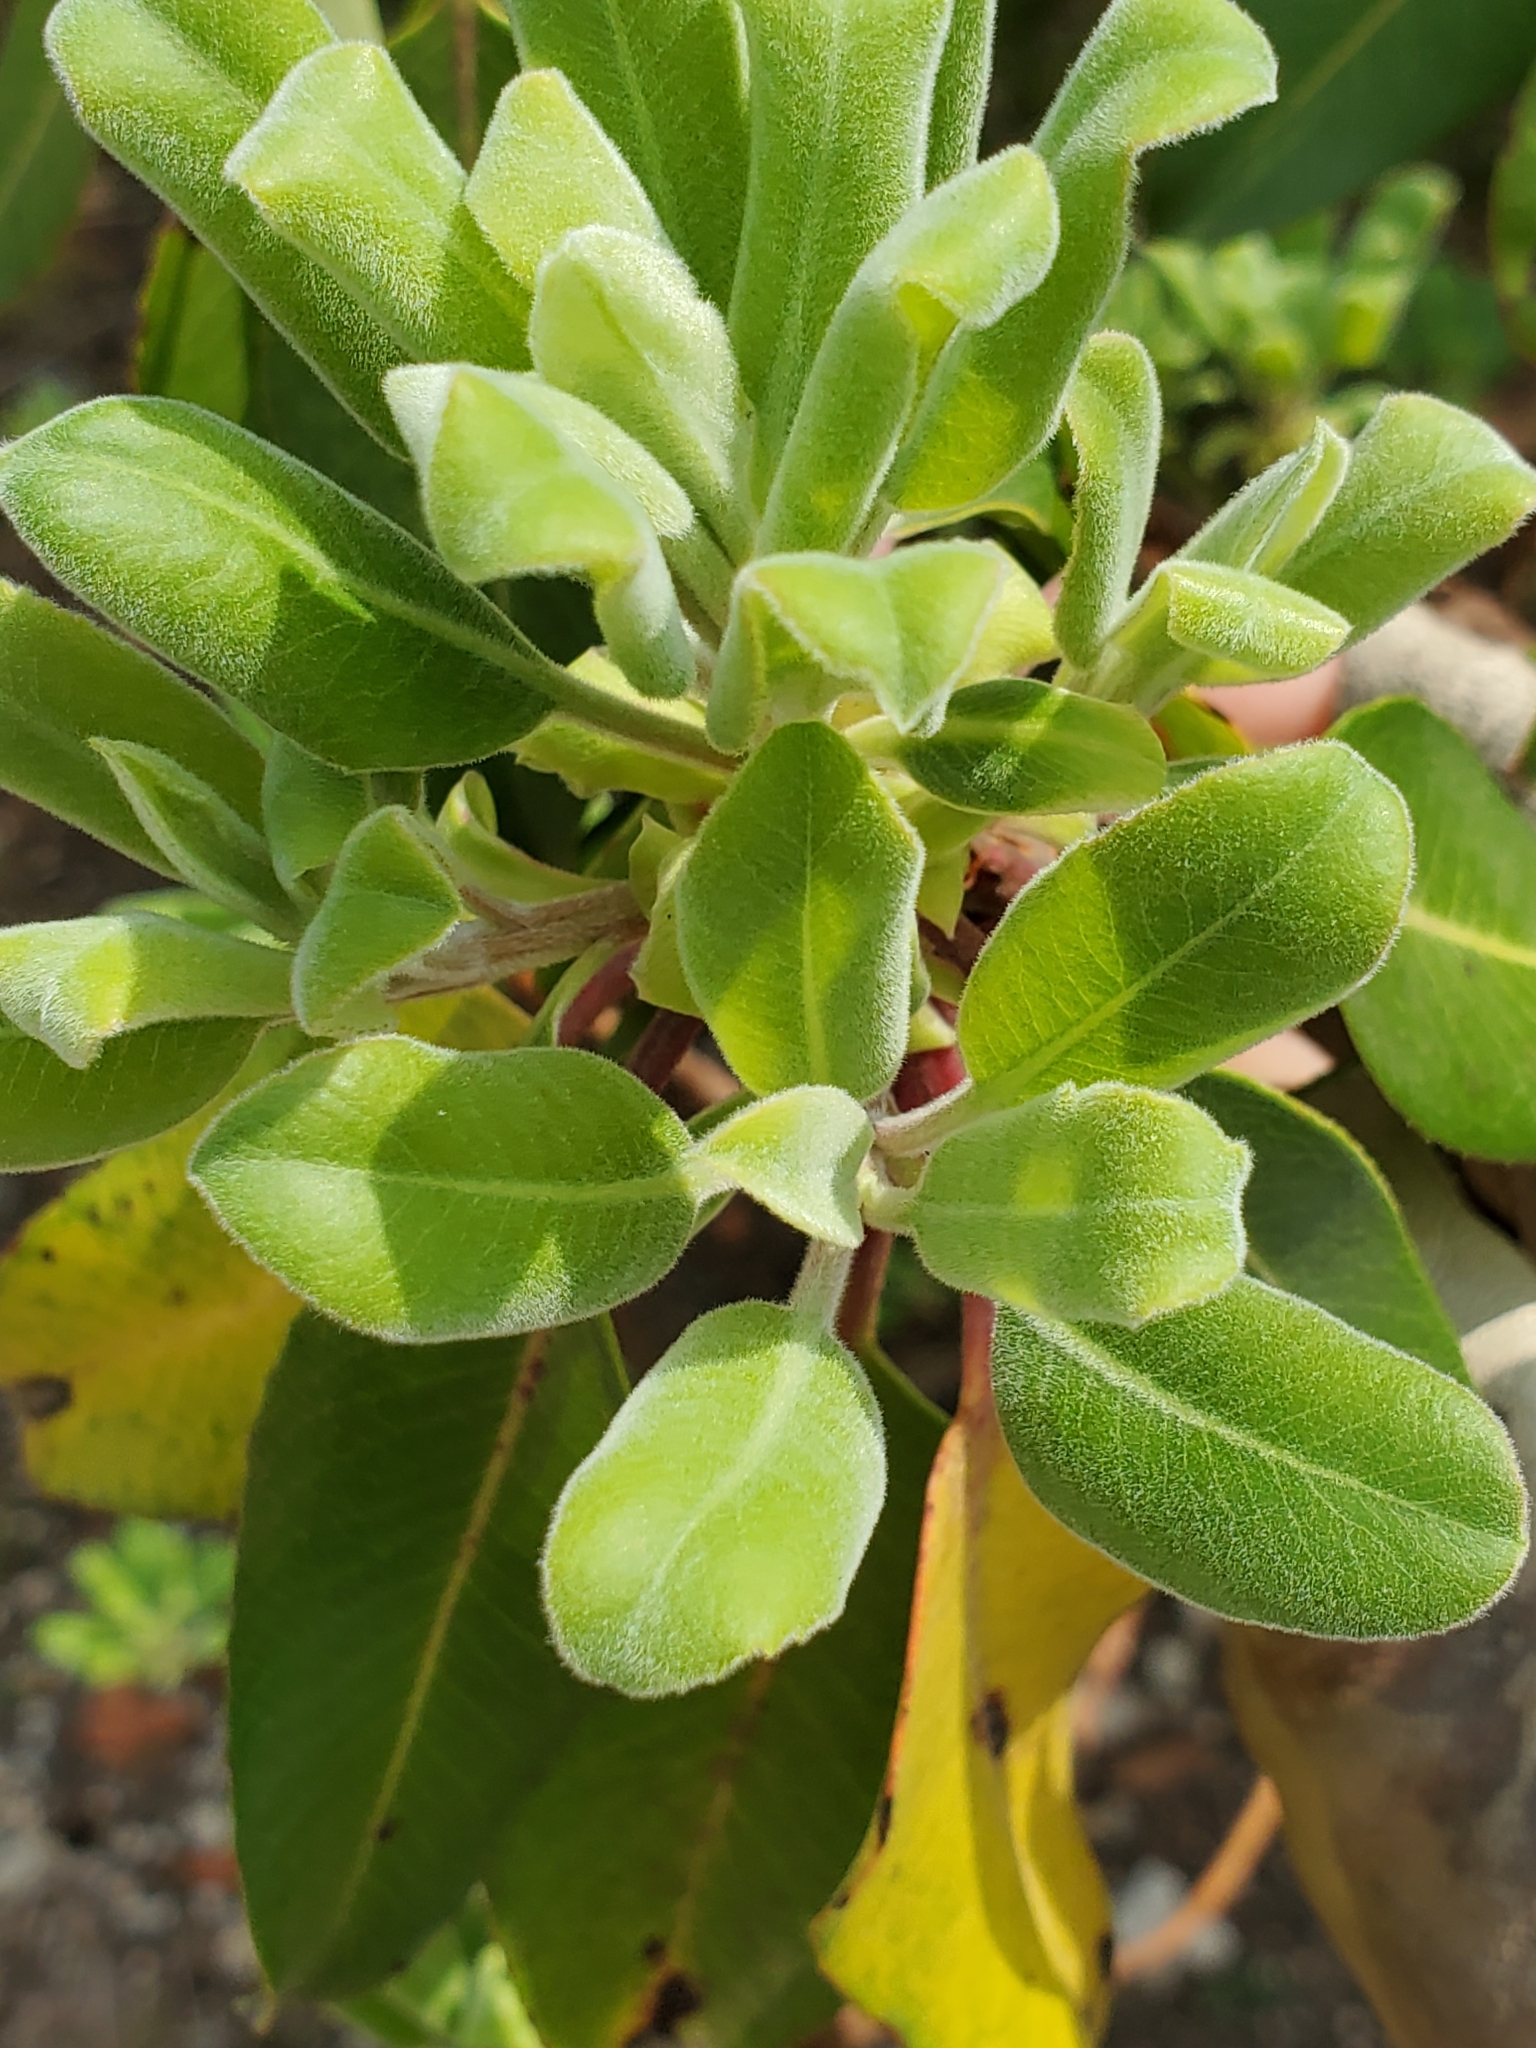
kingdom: Plantae
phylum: Tracheophyta
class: Magnoliopsida
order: Ericales
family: Ericaceae
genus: Arbutus
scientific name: Arbutus xalapensis
